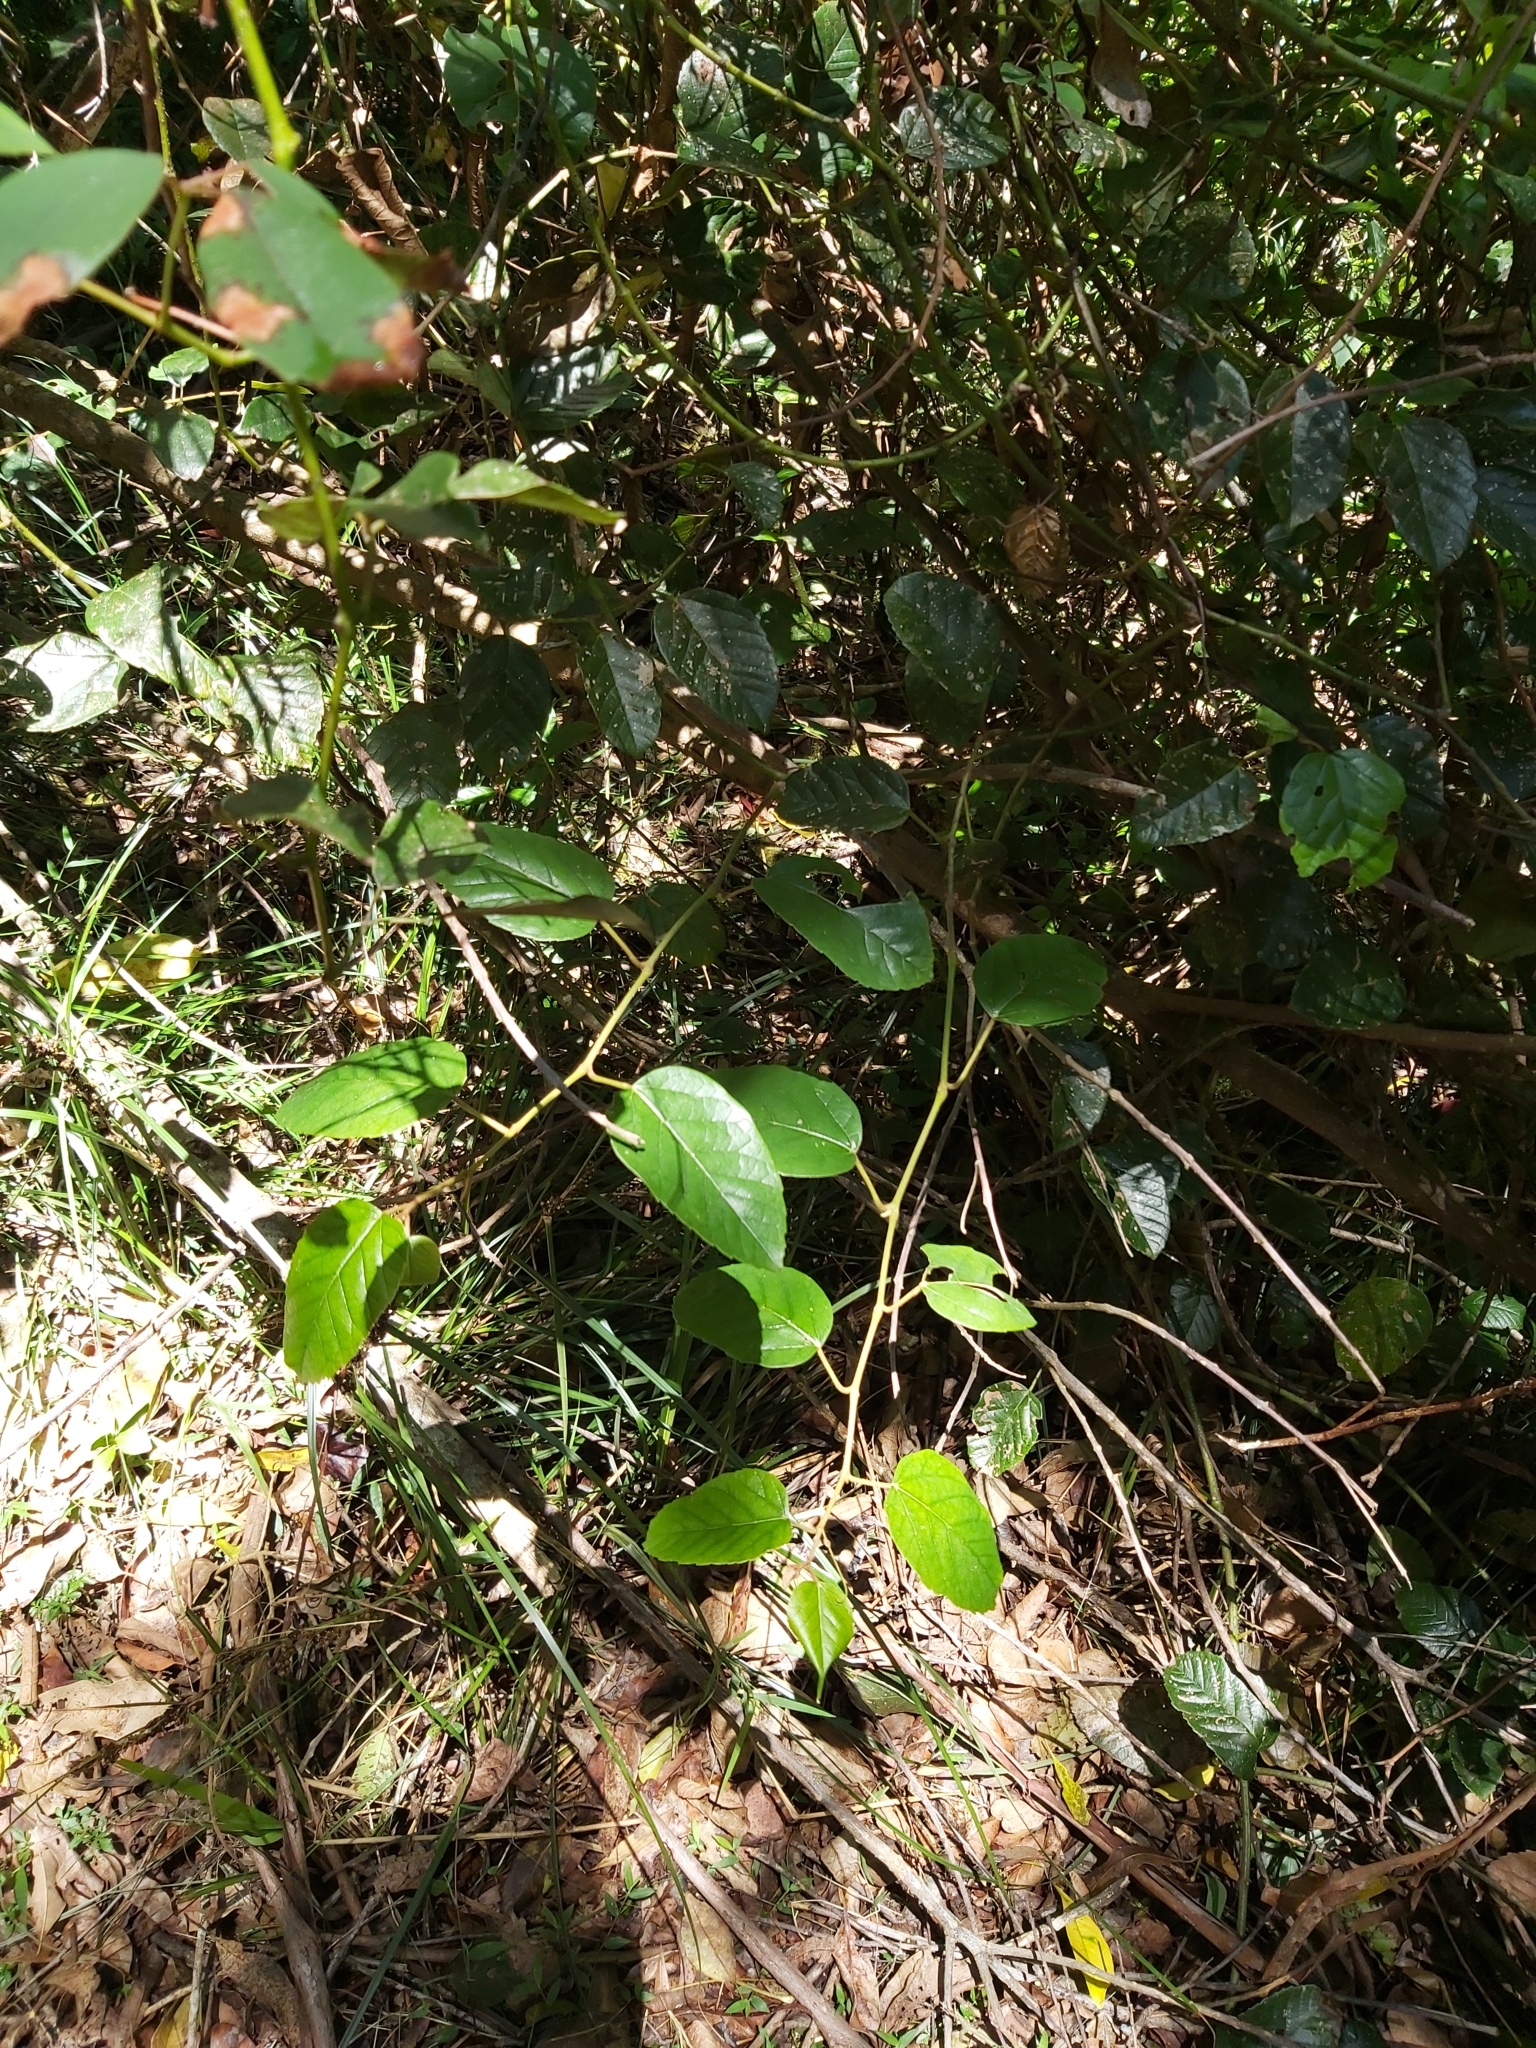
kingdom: Plantae
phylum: Tracheophyta
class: Magnoliopsida
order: Vitales
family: Vitaceae
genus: Cissus
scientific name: Cissus antarctica
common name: Kangaroo vine
